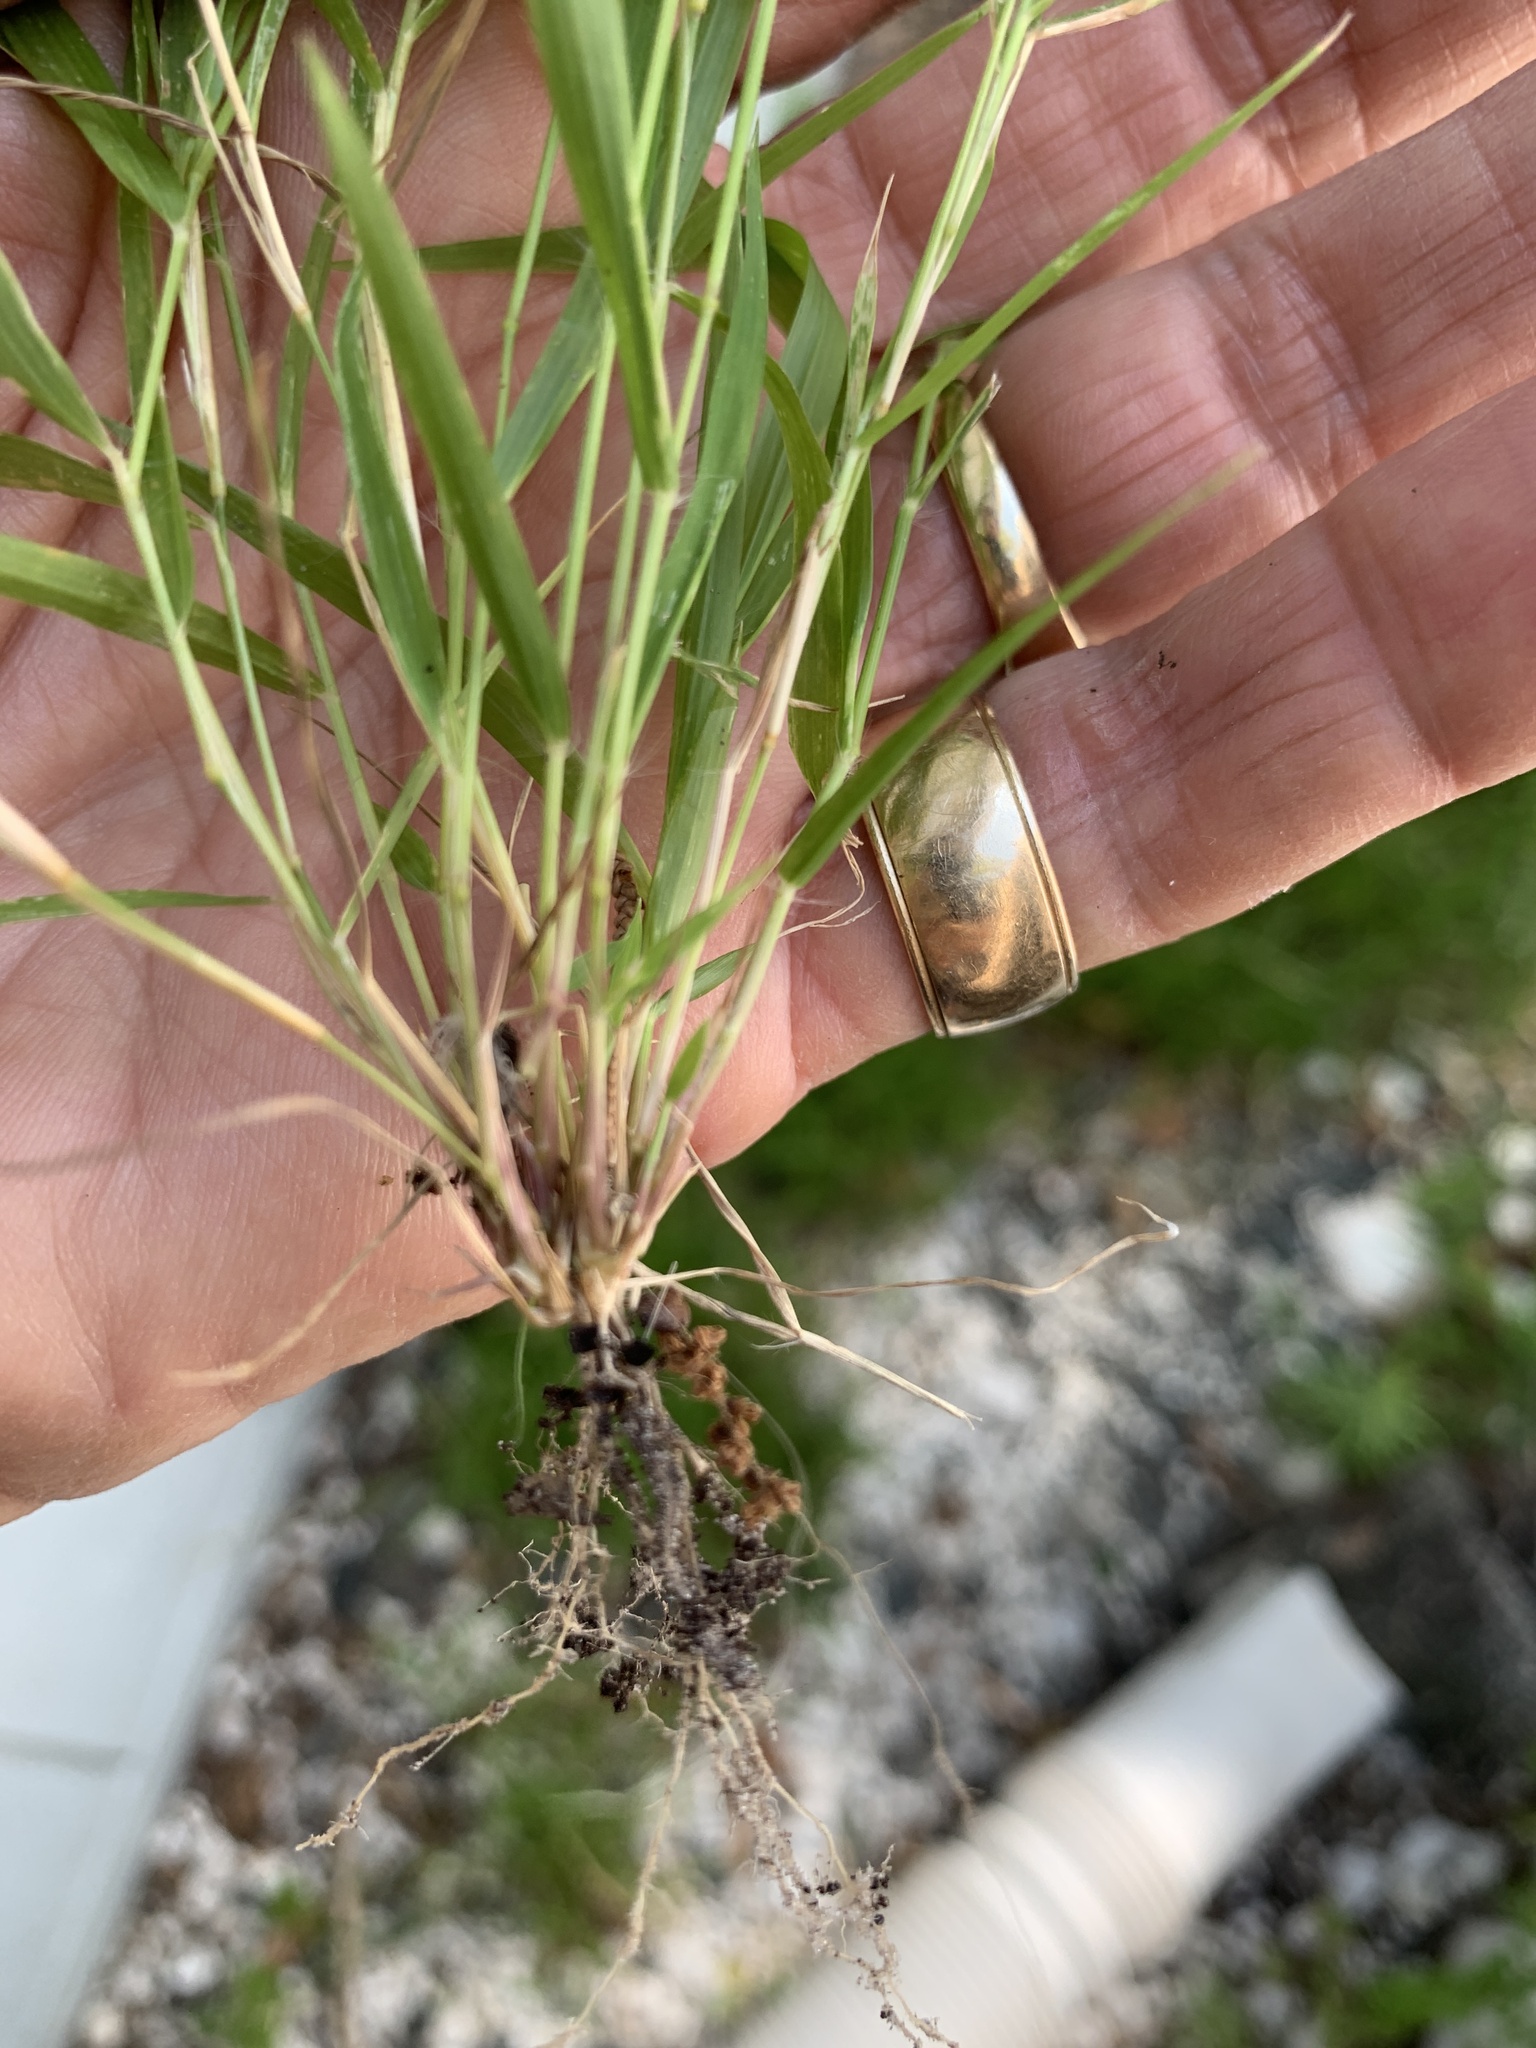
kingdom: Plantae
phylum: Tracheophyta
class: Liliopsida
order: Poales
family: Poaceae
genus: Eragrostis
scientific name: Eragrostis ciliaris
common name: Gophertail lovegrass
